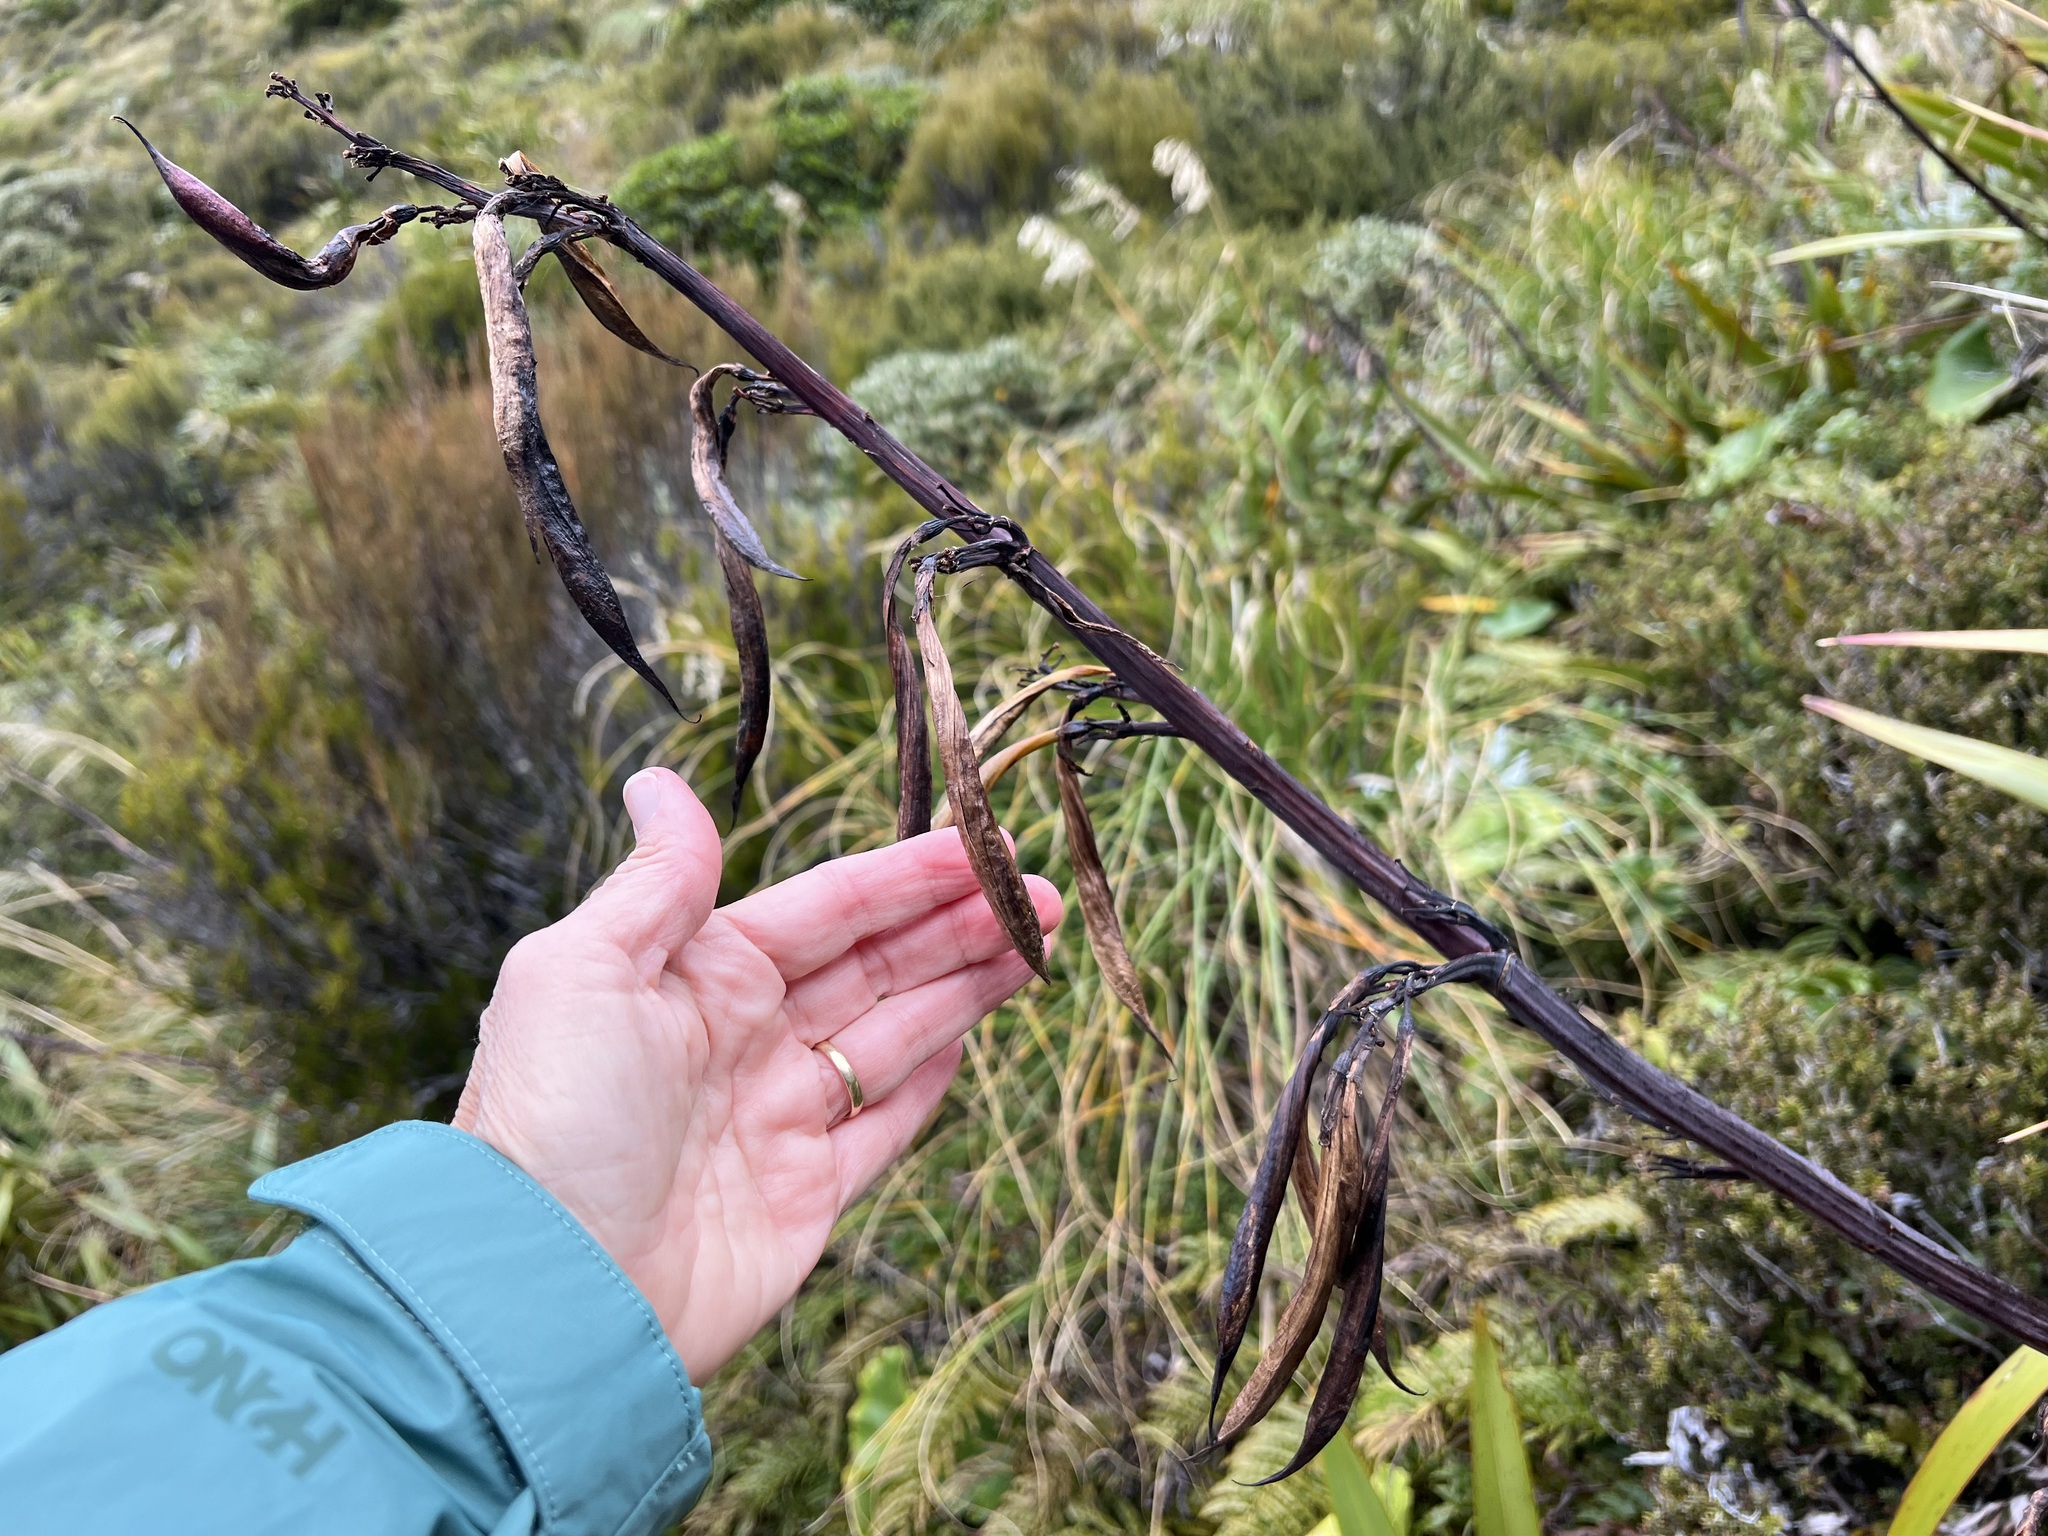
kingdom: Plantae
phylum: Tracheophyta
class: Liliopsida
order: Asparagales
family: Asphodelaceae
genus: Phormium
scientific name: Phormium colensoi
